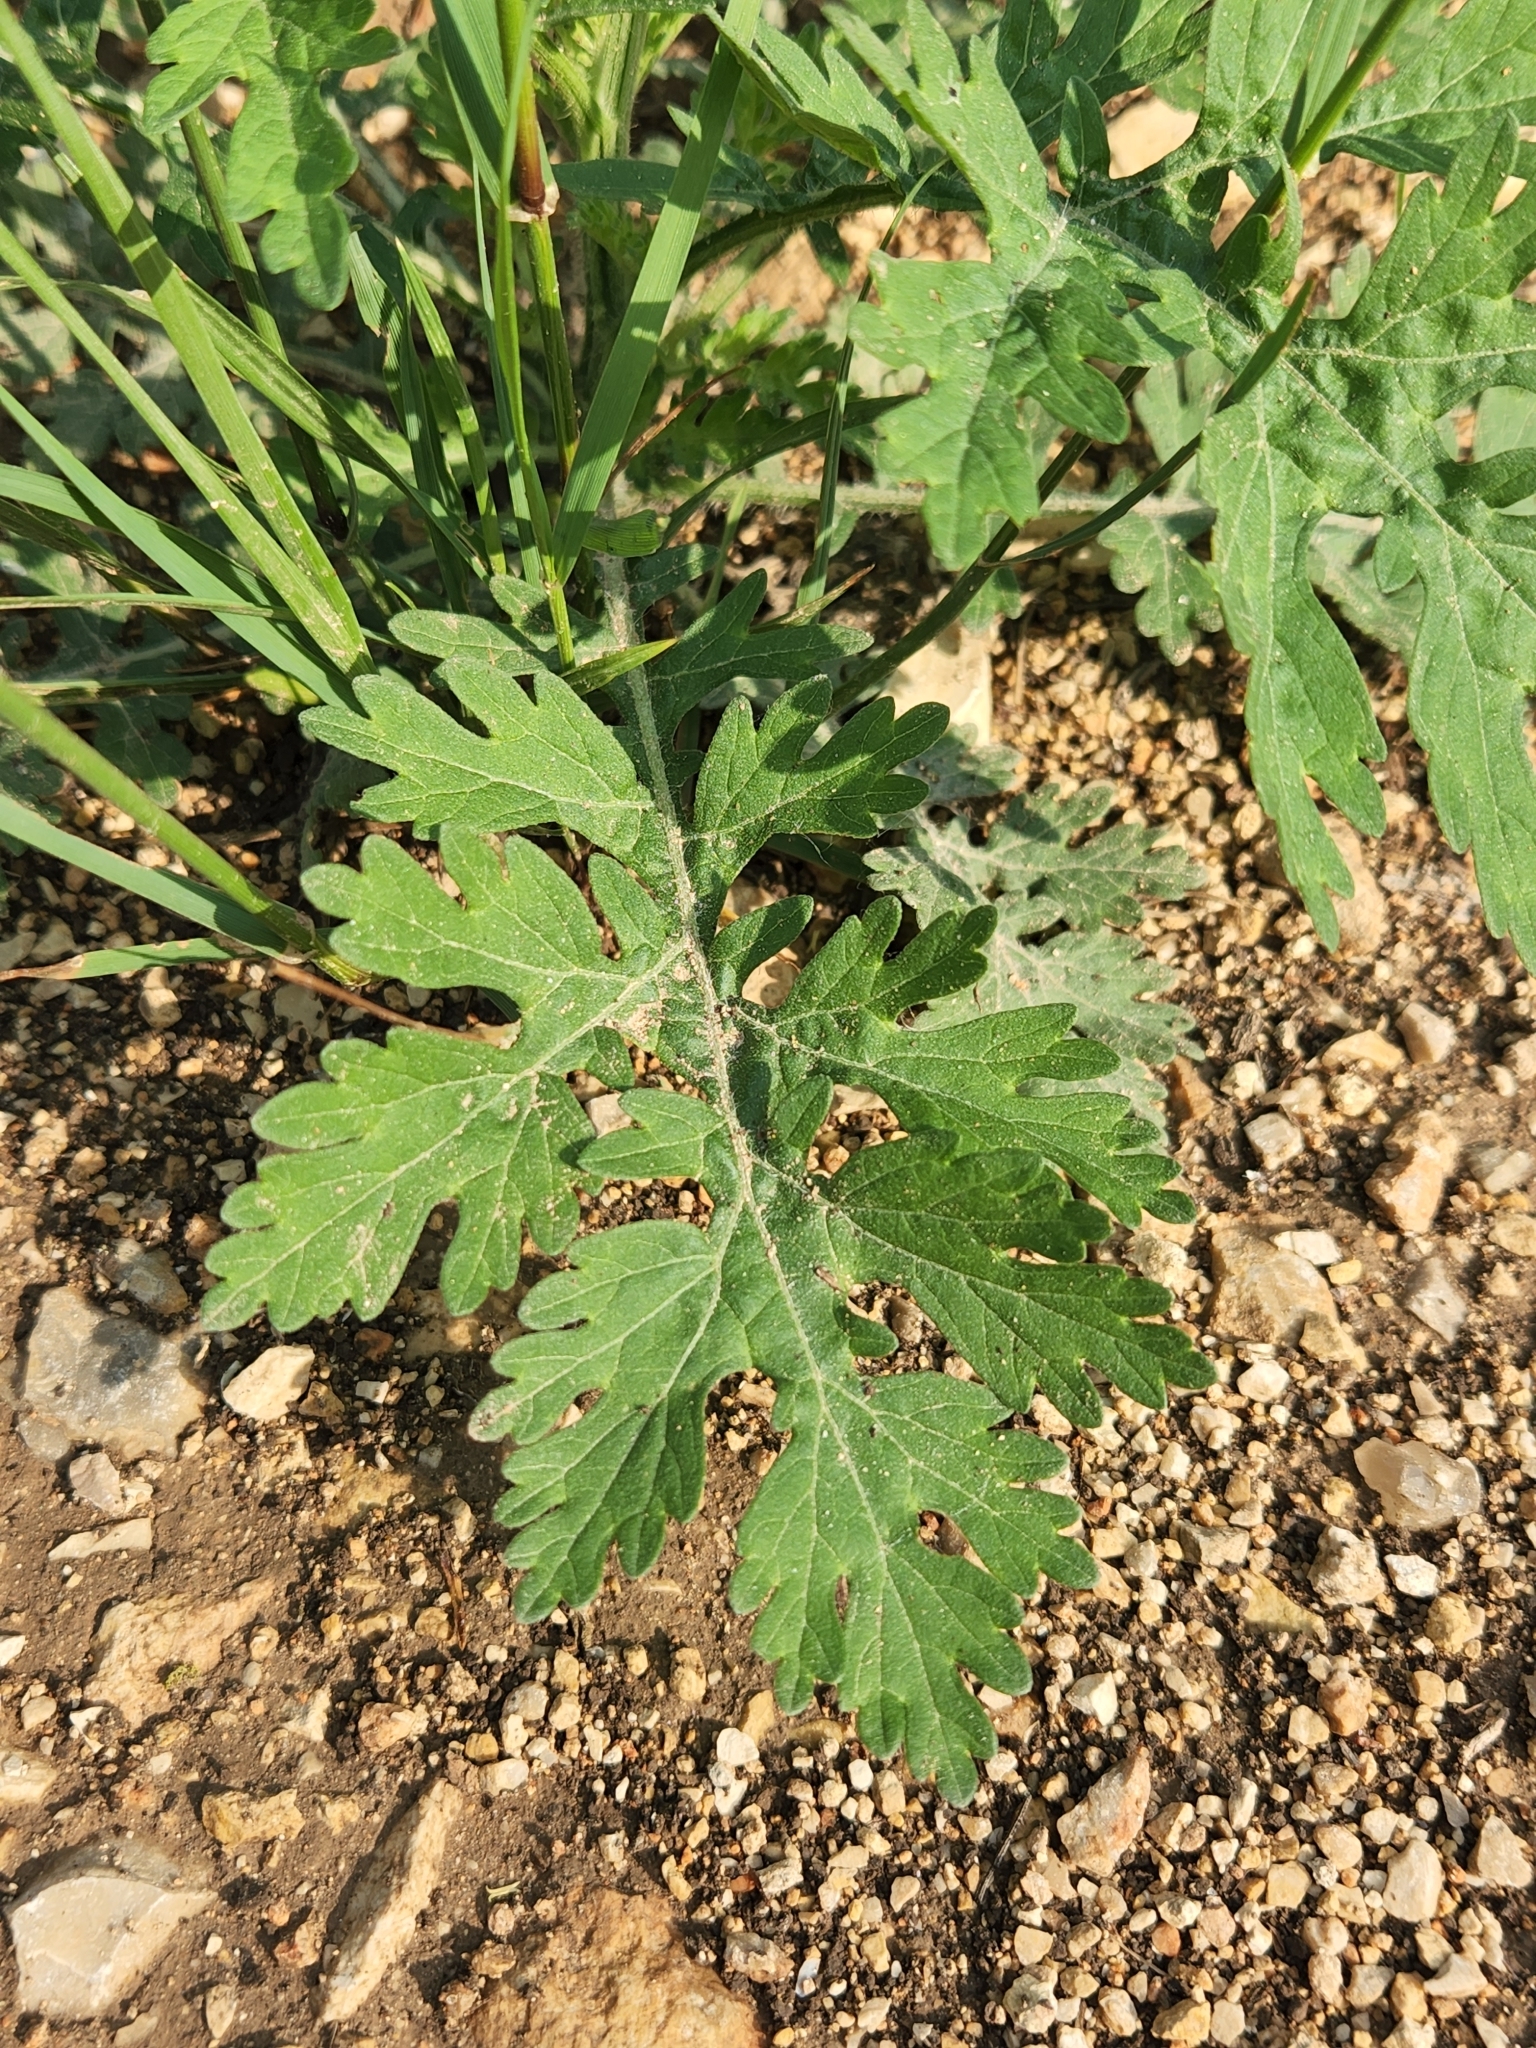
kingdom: Plantae
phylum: Tracheophyta
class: Magnoliopsida
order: Asterales
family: Asteraceae
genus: Parthenium
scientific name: Parthenium hysterophorus
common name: Santa maria feverfew
